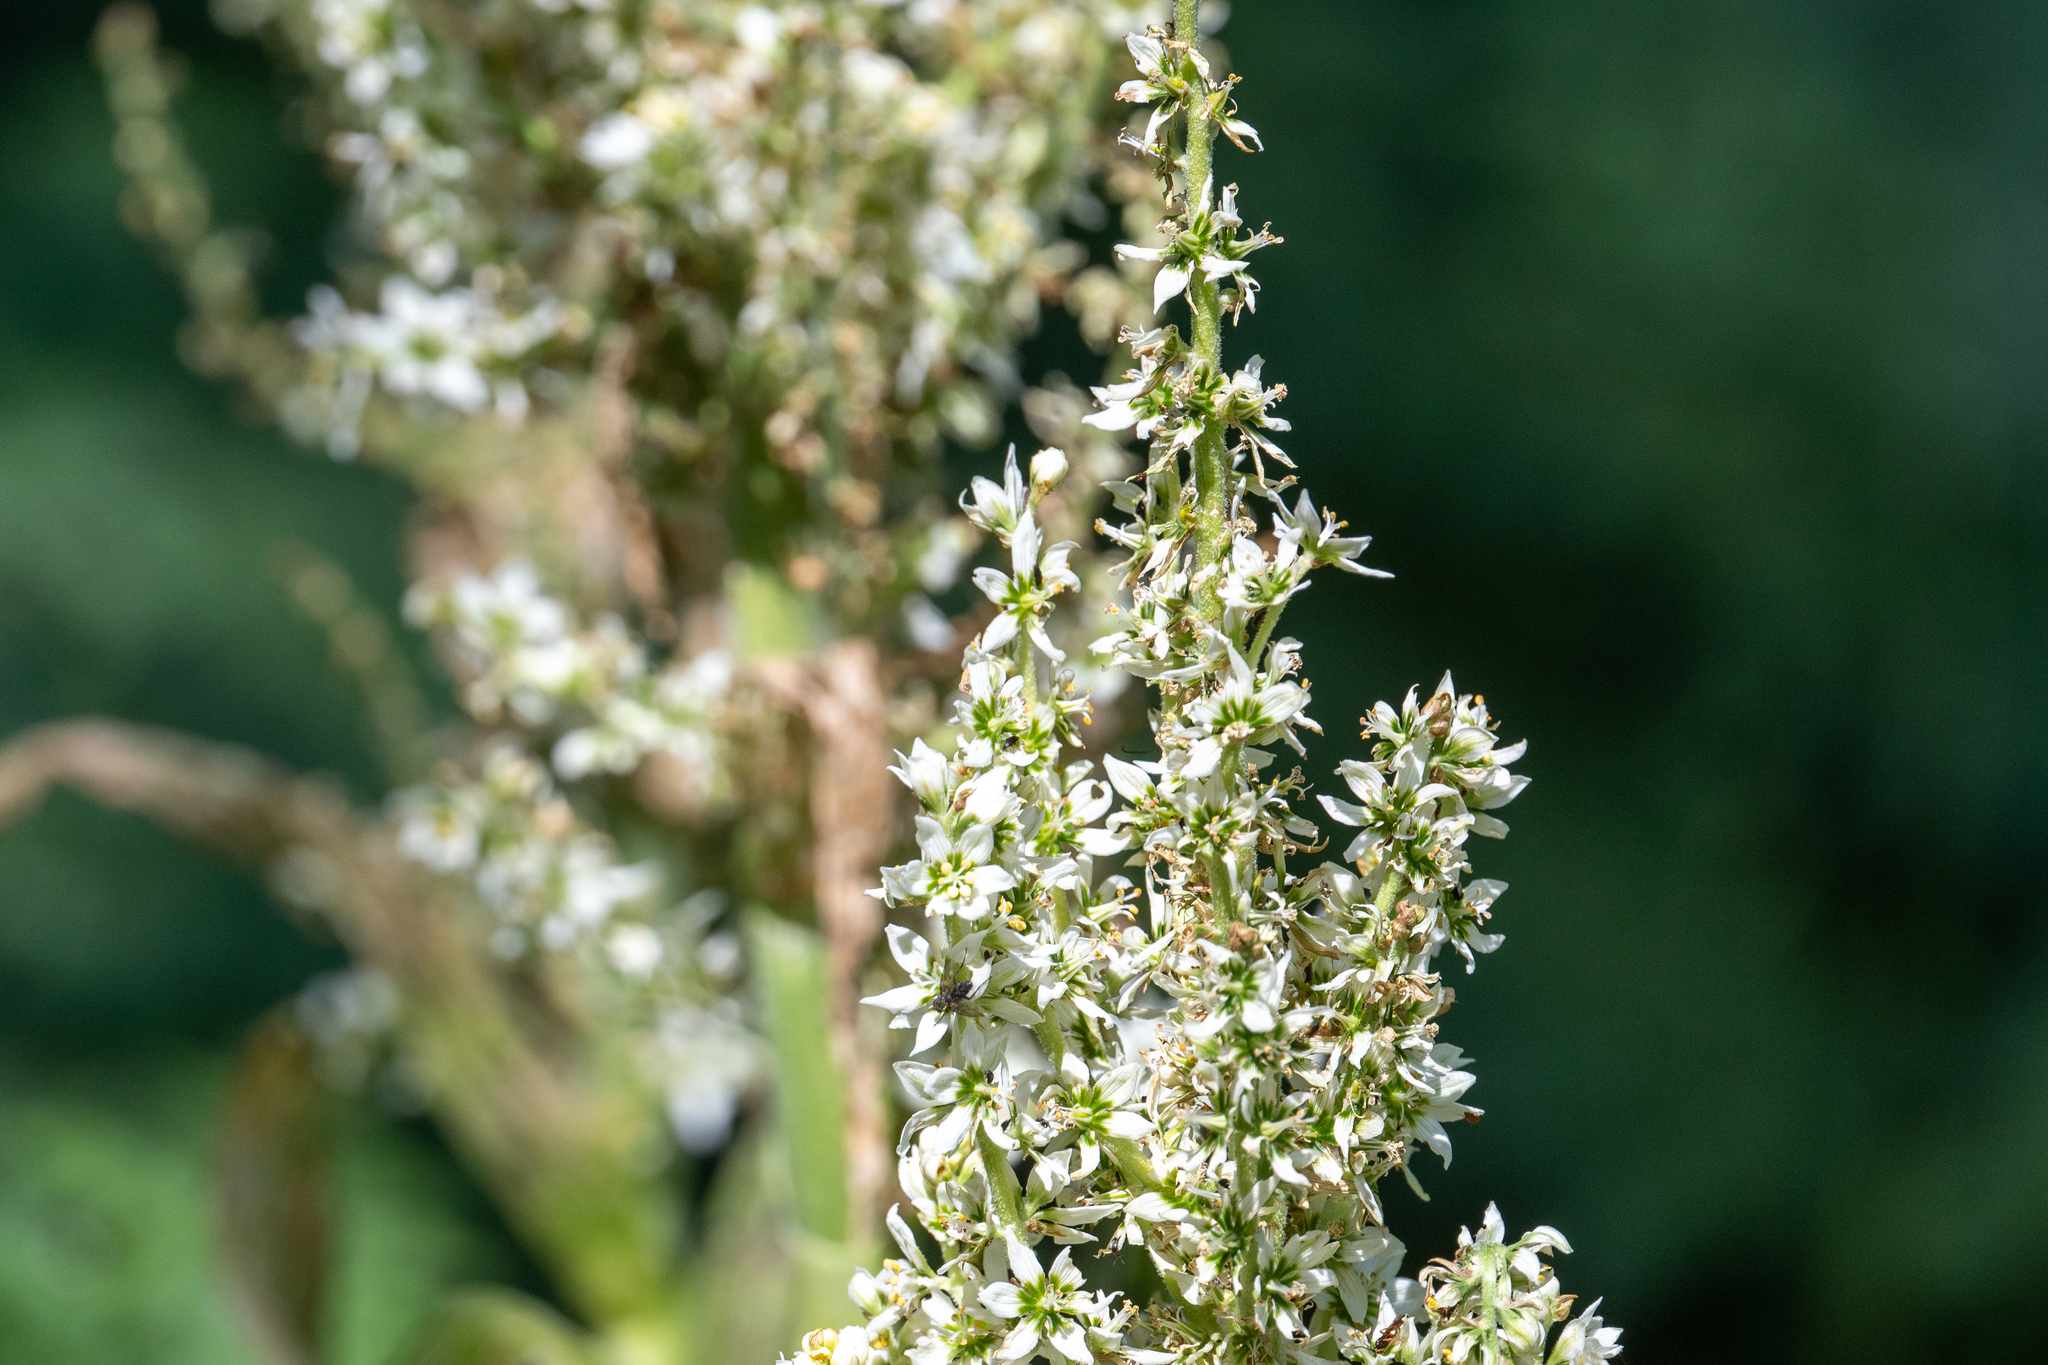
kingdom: Plantae
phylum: Tracheophyta
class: Liliopsida
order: Liliales
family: Melanthiaceae
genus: Veratrum
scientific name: Veratrum californicum
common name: California veratrum
